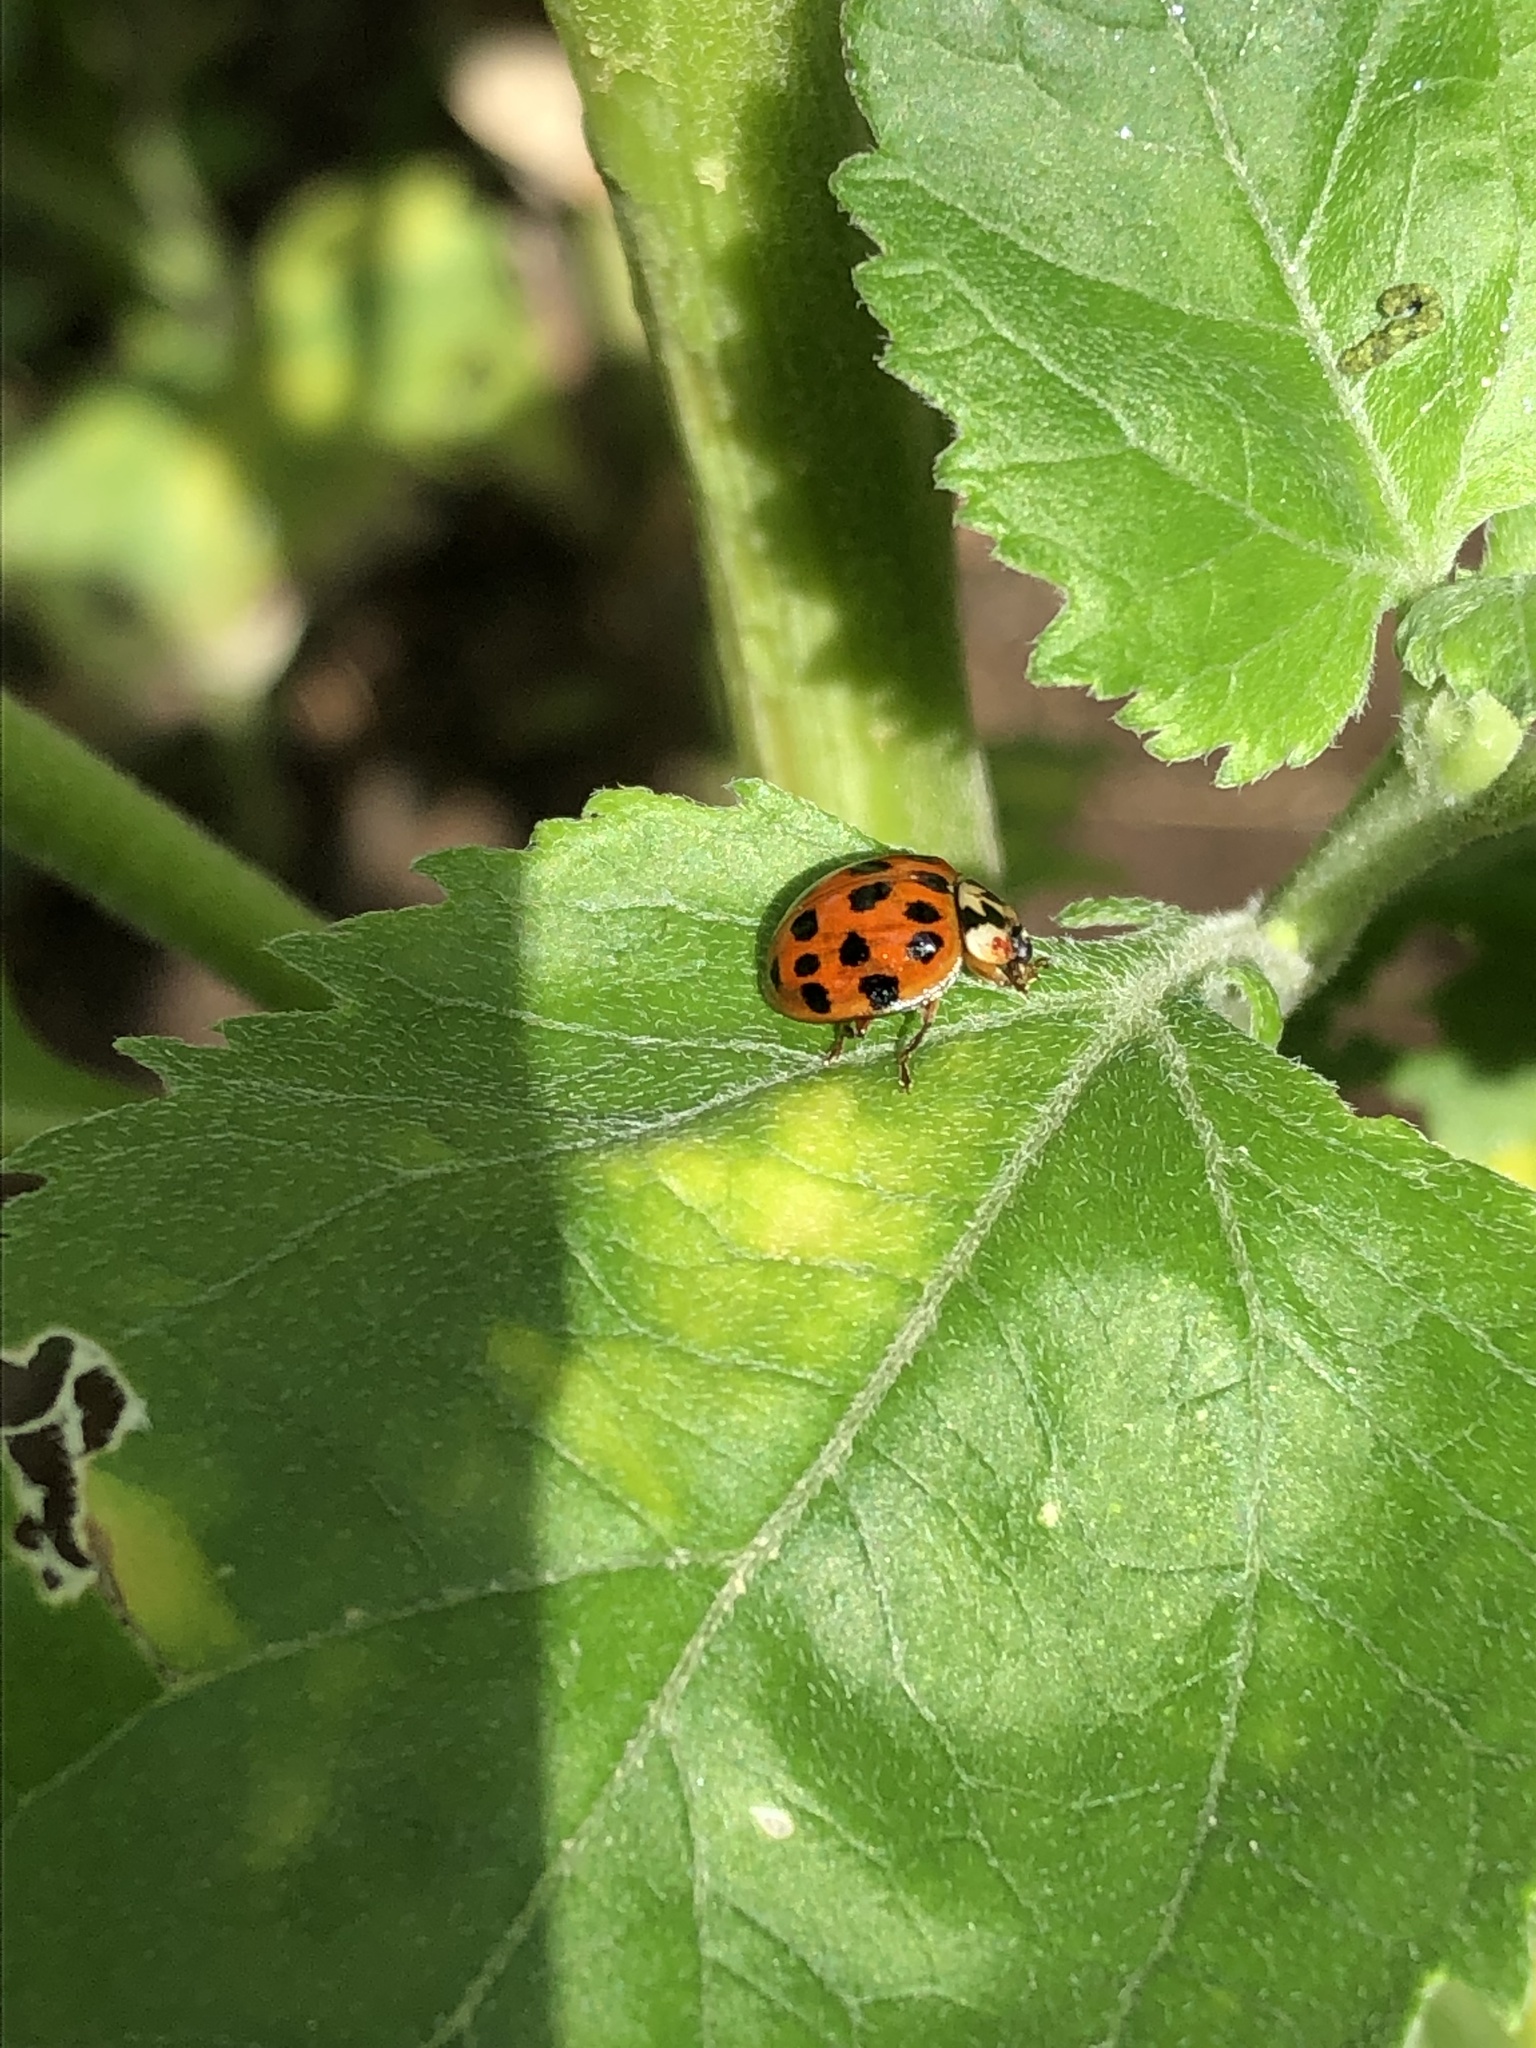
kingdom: Animalia
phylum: Arthropoda
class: Insecta
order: Coleoptera
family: Coccinellidae
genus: Harmonia
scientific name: Harmonia axyridis
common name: Harlequin ladybird
